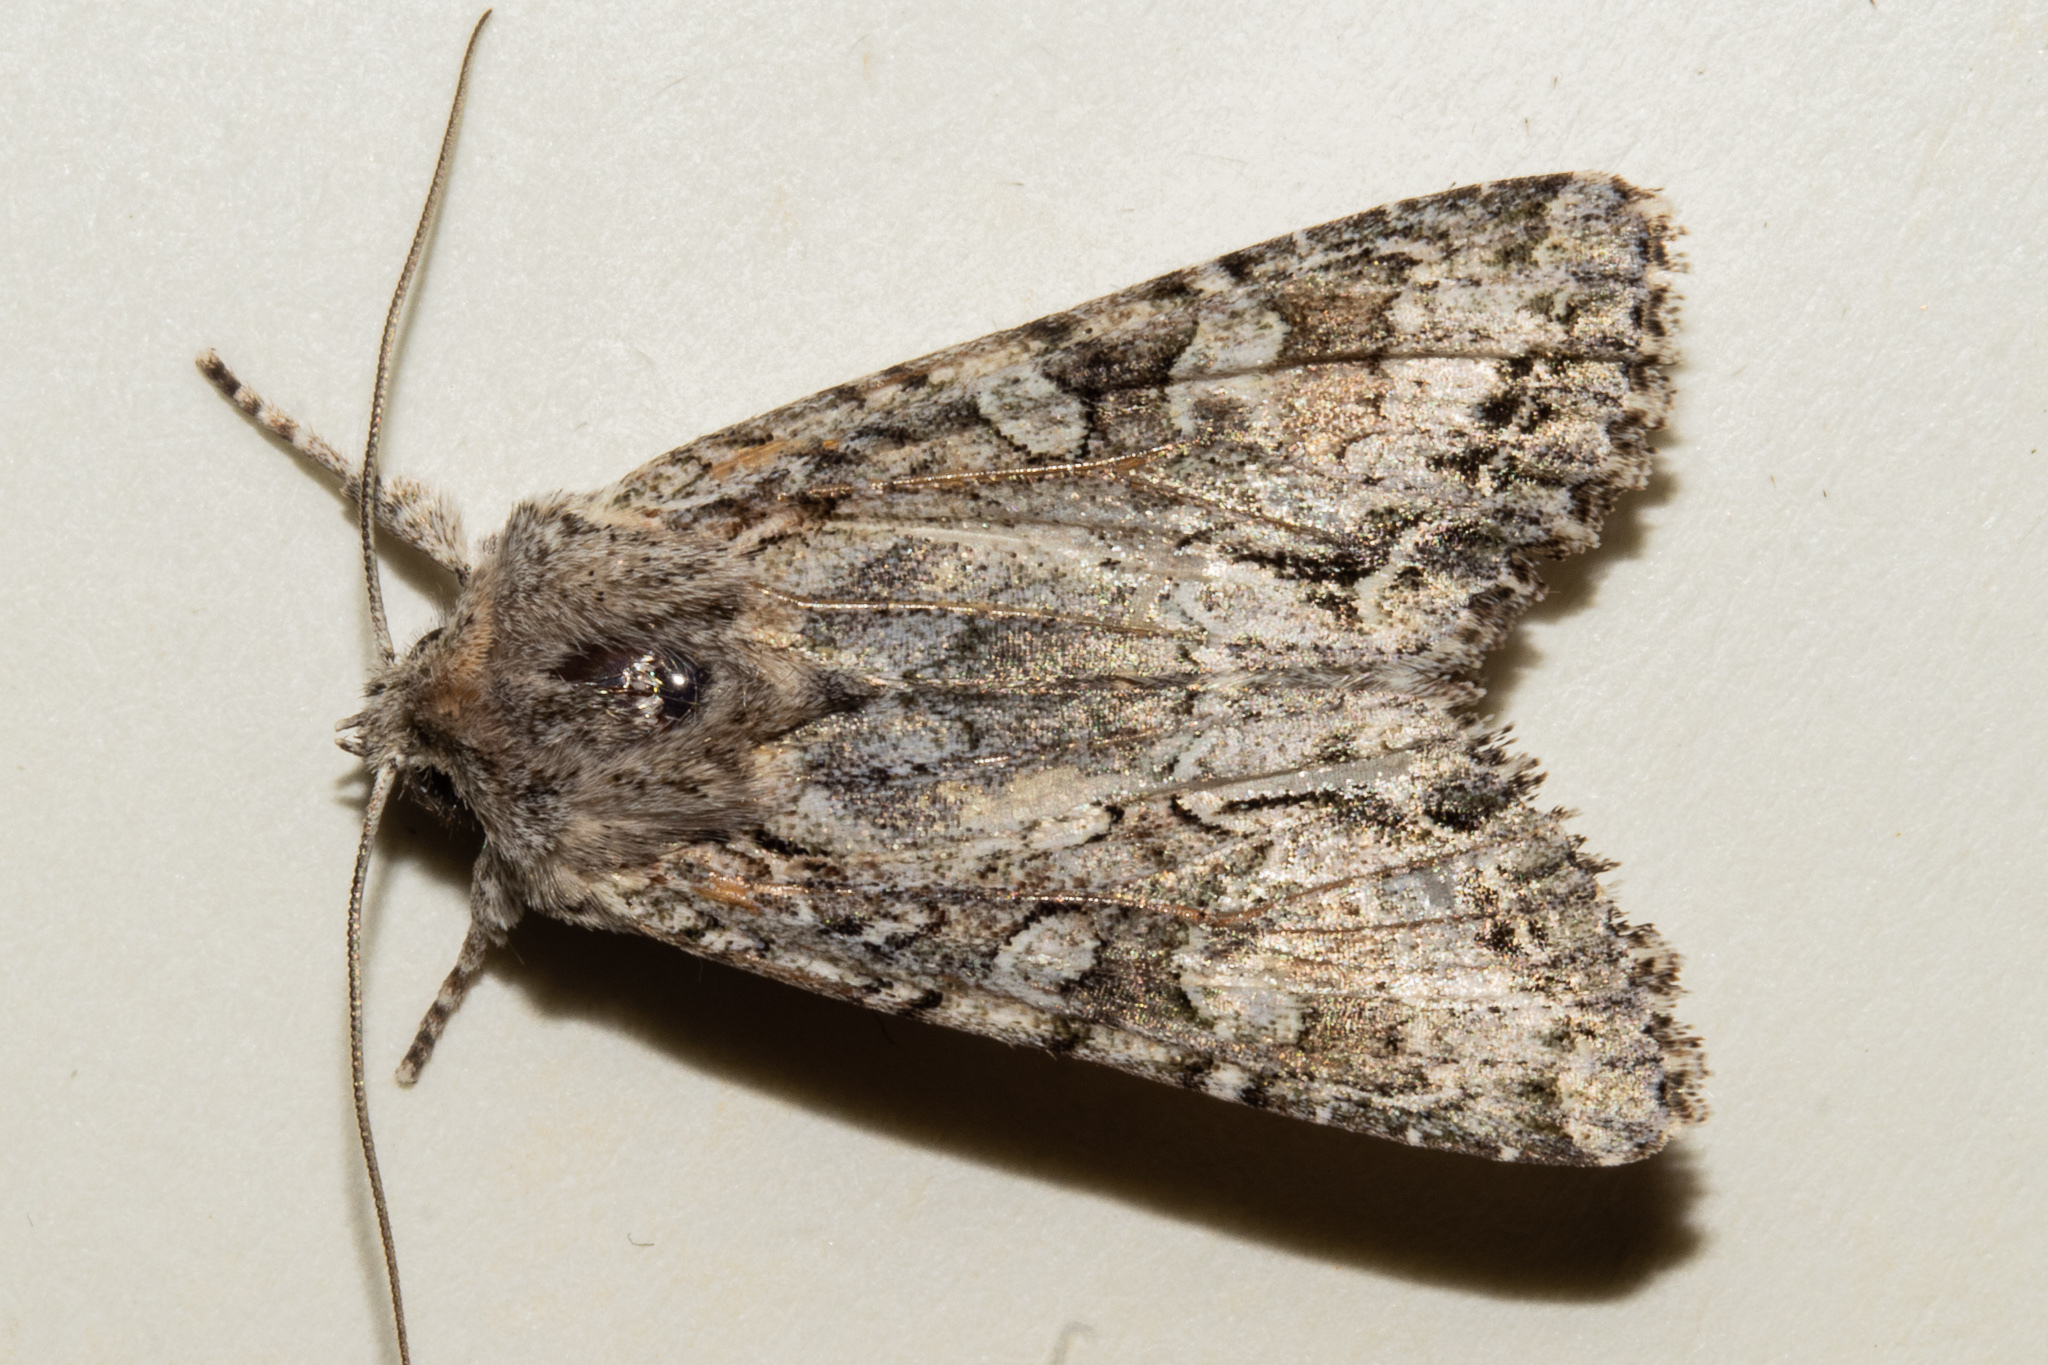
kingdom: Animalia
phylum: Arthropoda
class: Insecta
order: Lepidoptera
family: Noctuidae
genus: Ichneutica
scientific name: Ichneutica mutans
